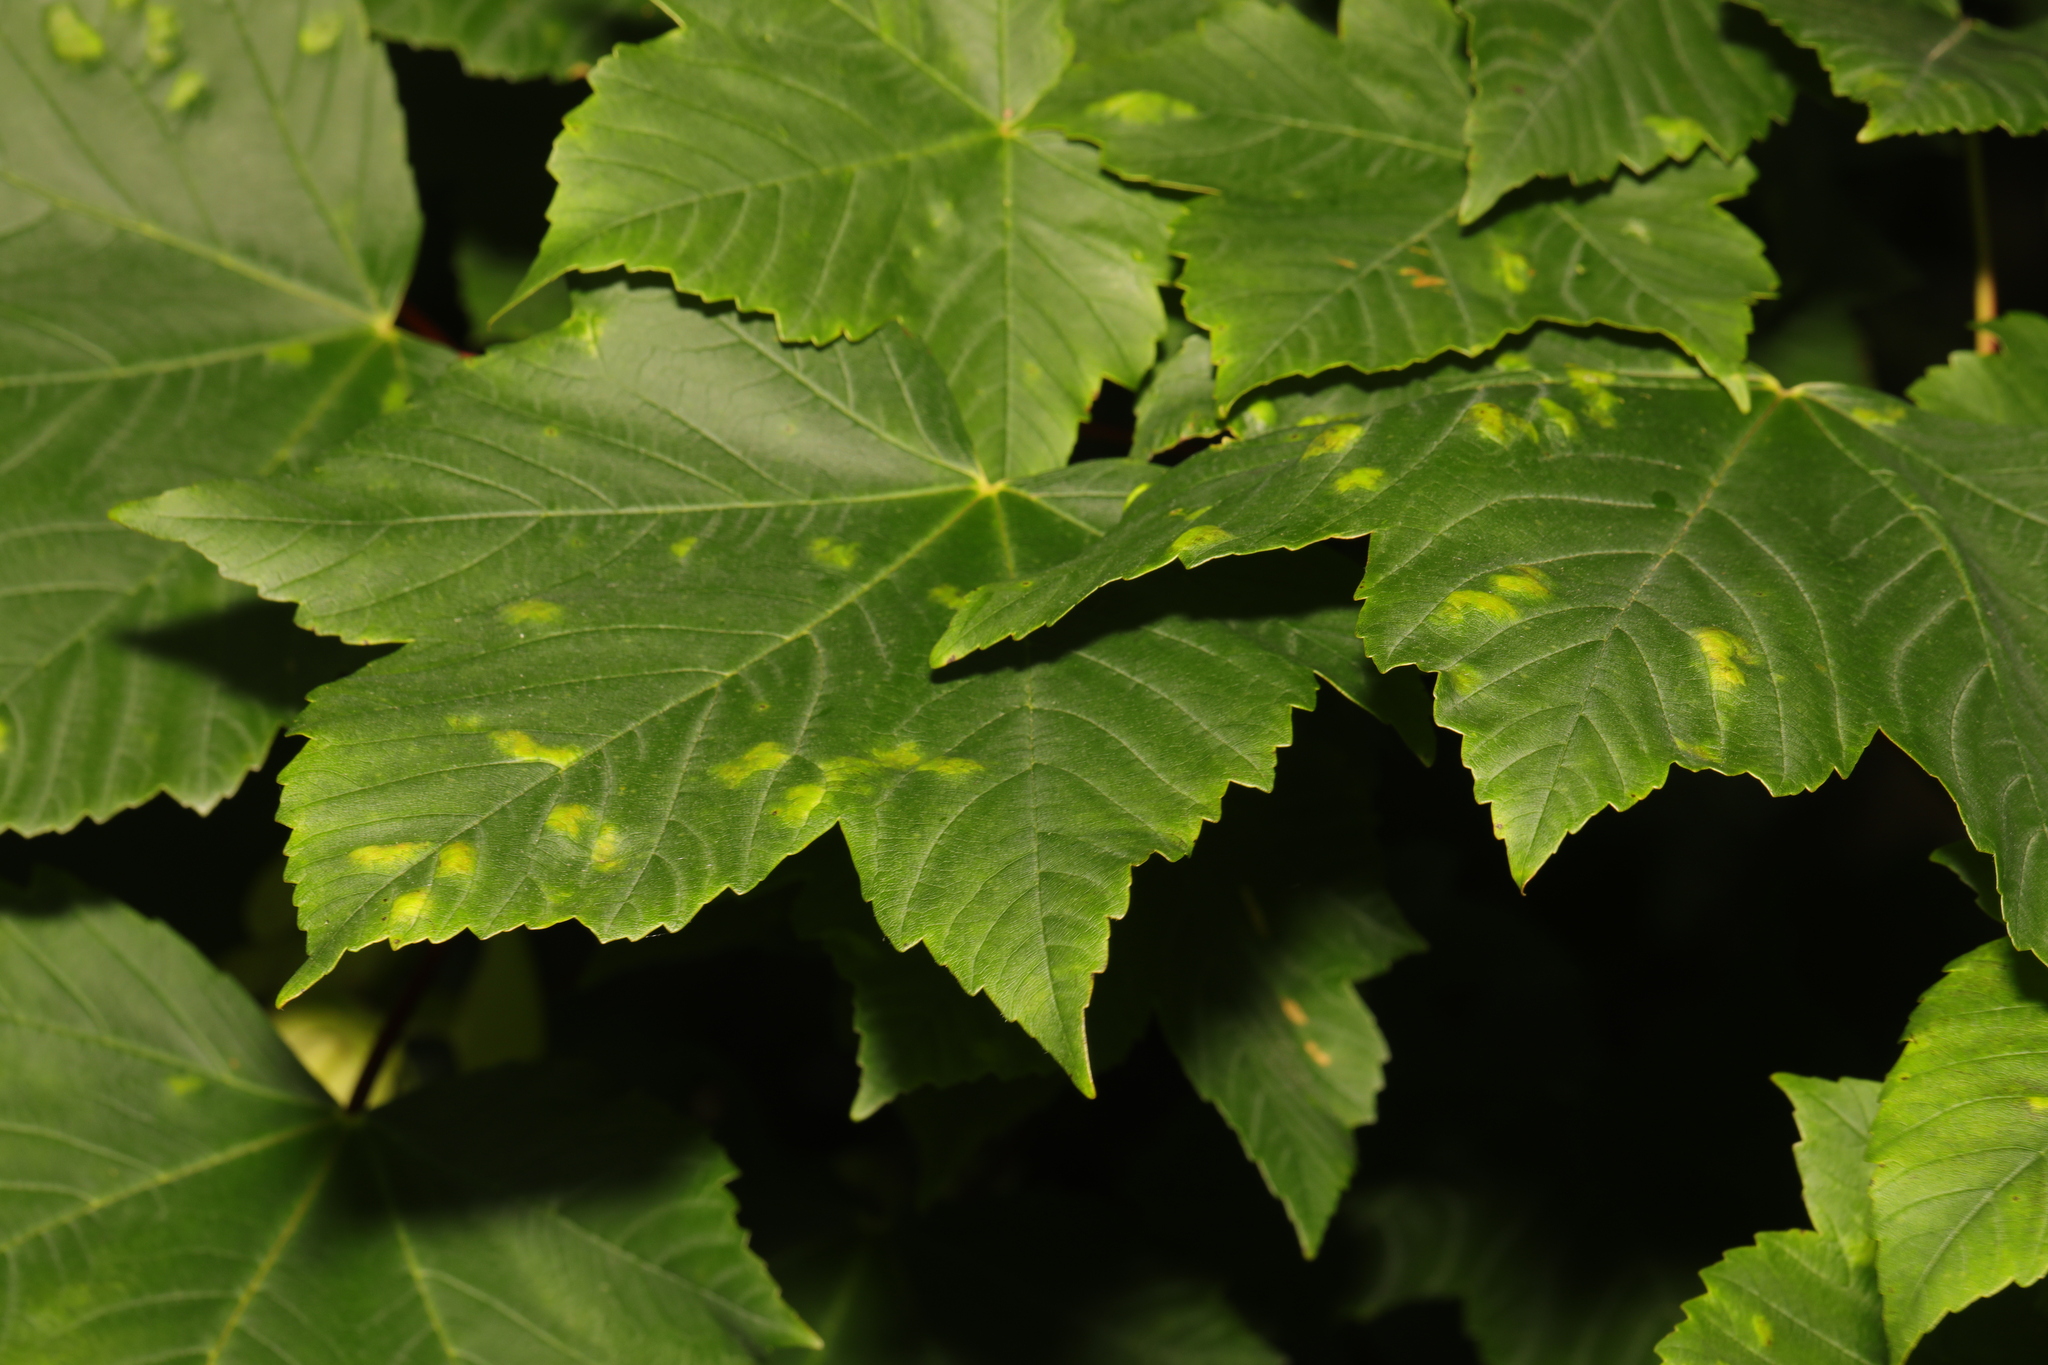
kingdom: Animalia
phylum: Arthropoda
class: Arachnida
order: Trombidiformes
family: Eriophyidae
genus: Aceria
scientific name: Aceria pseudoplatani
